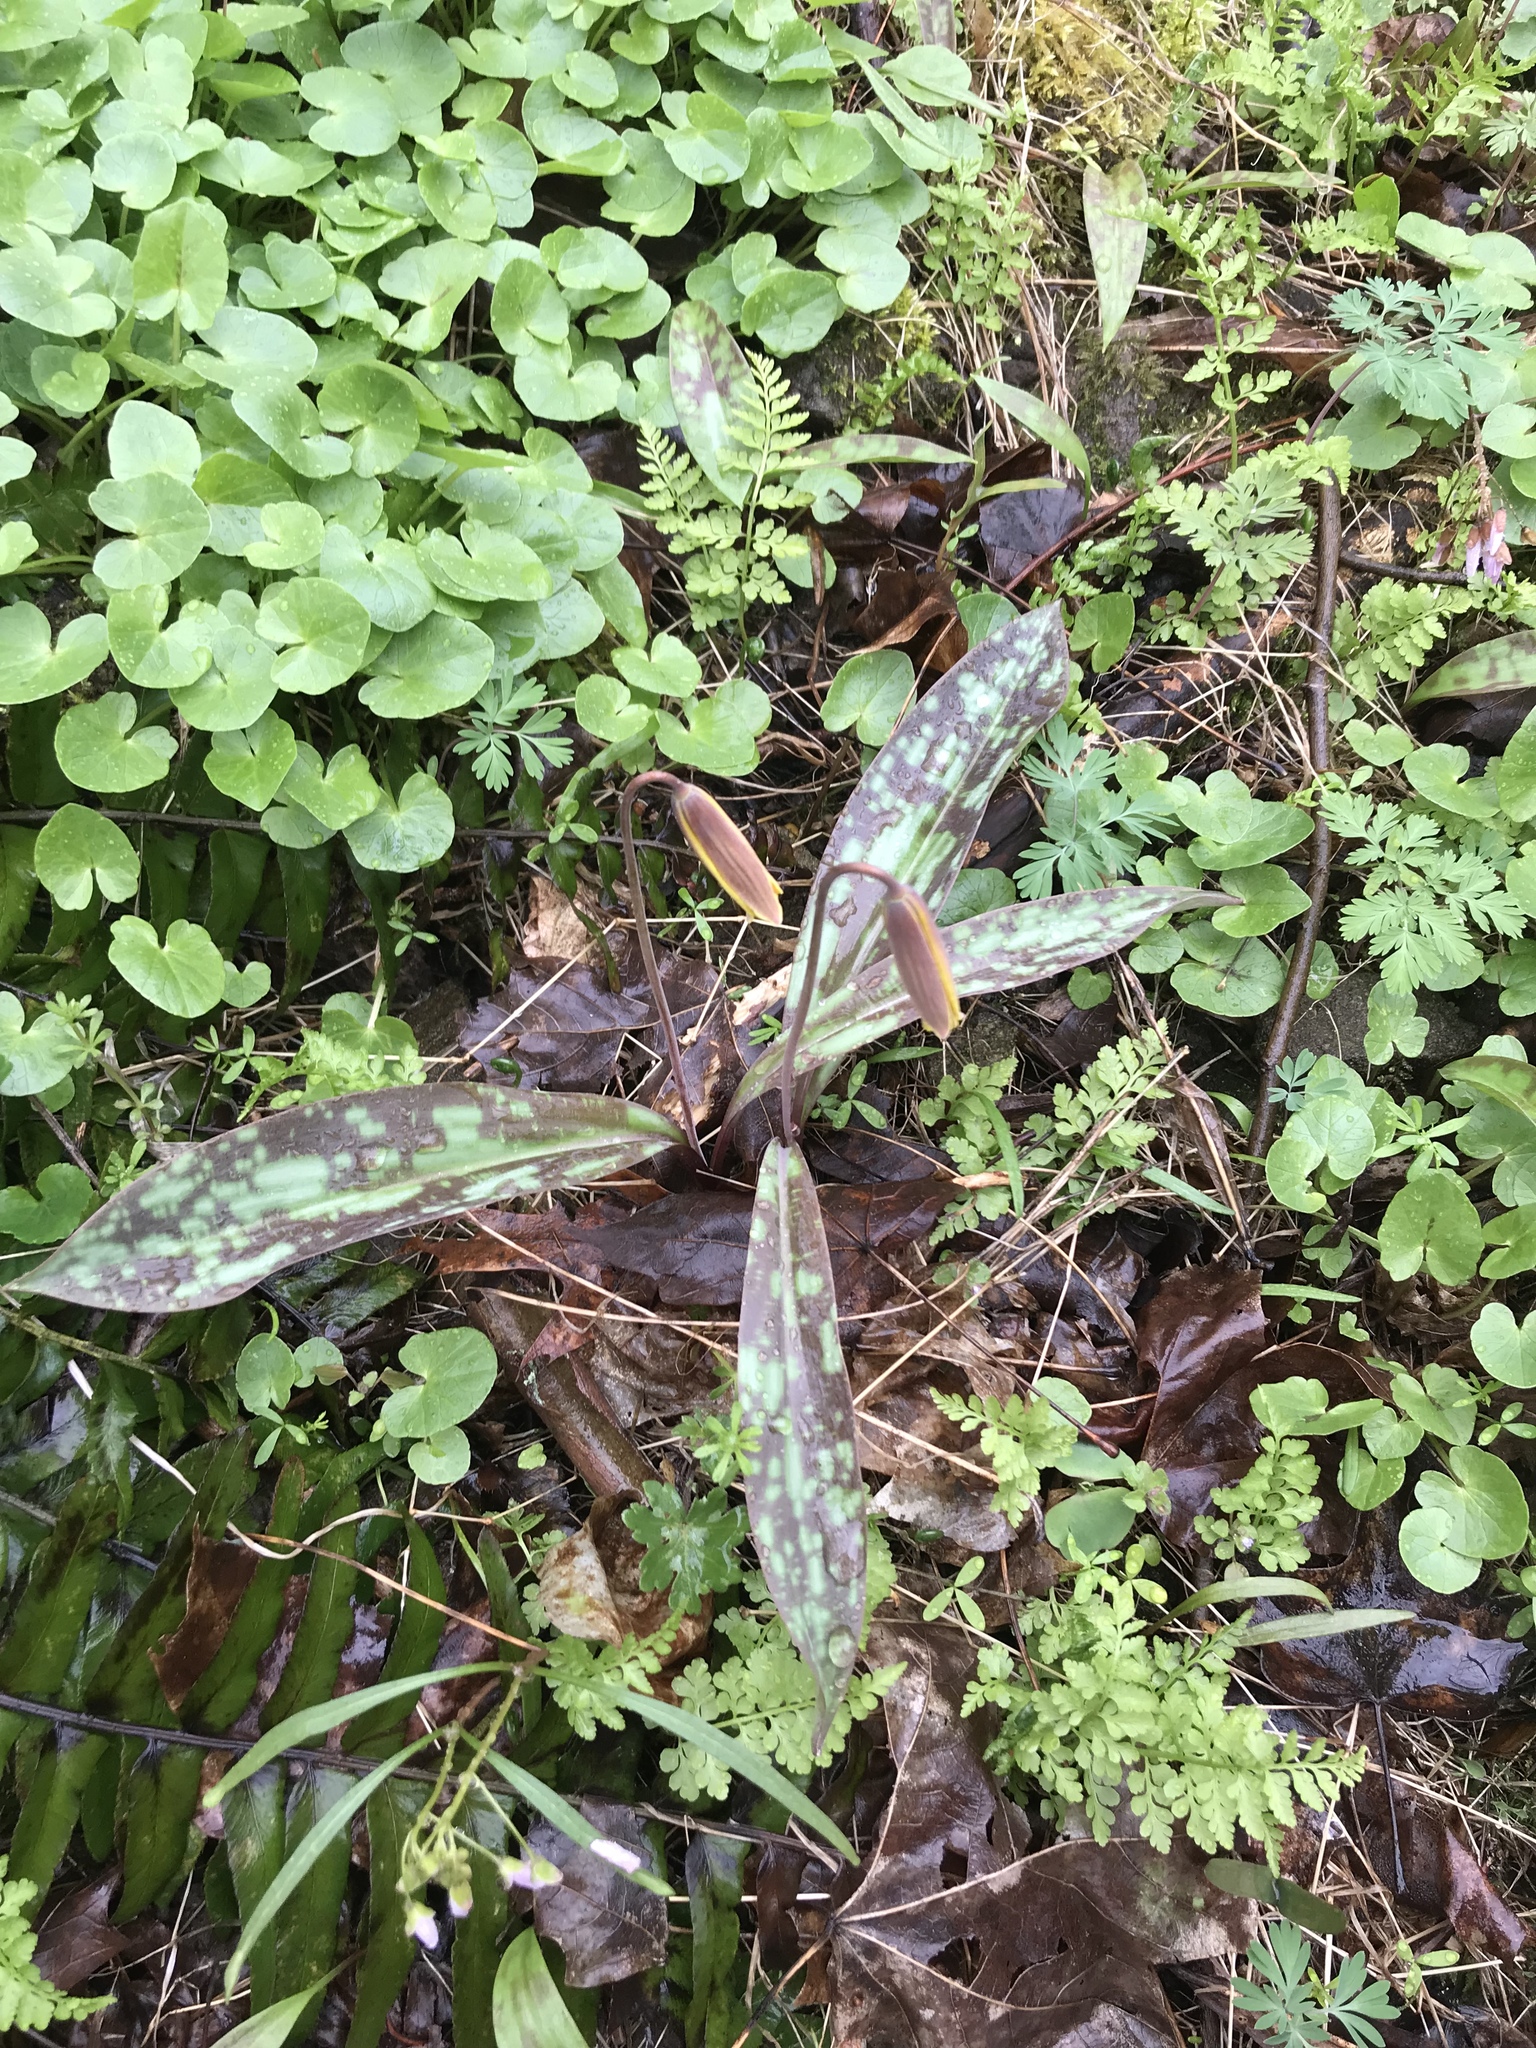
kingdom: Plantae
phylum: Tracheophyta
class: Liliopsida
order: Liliales
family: Liliaceae
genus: Erythronium
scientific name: Erythronium americanum
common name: Yellow adder's-tongue
